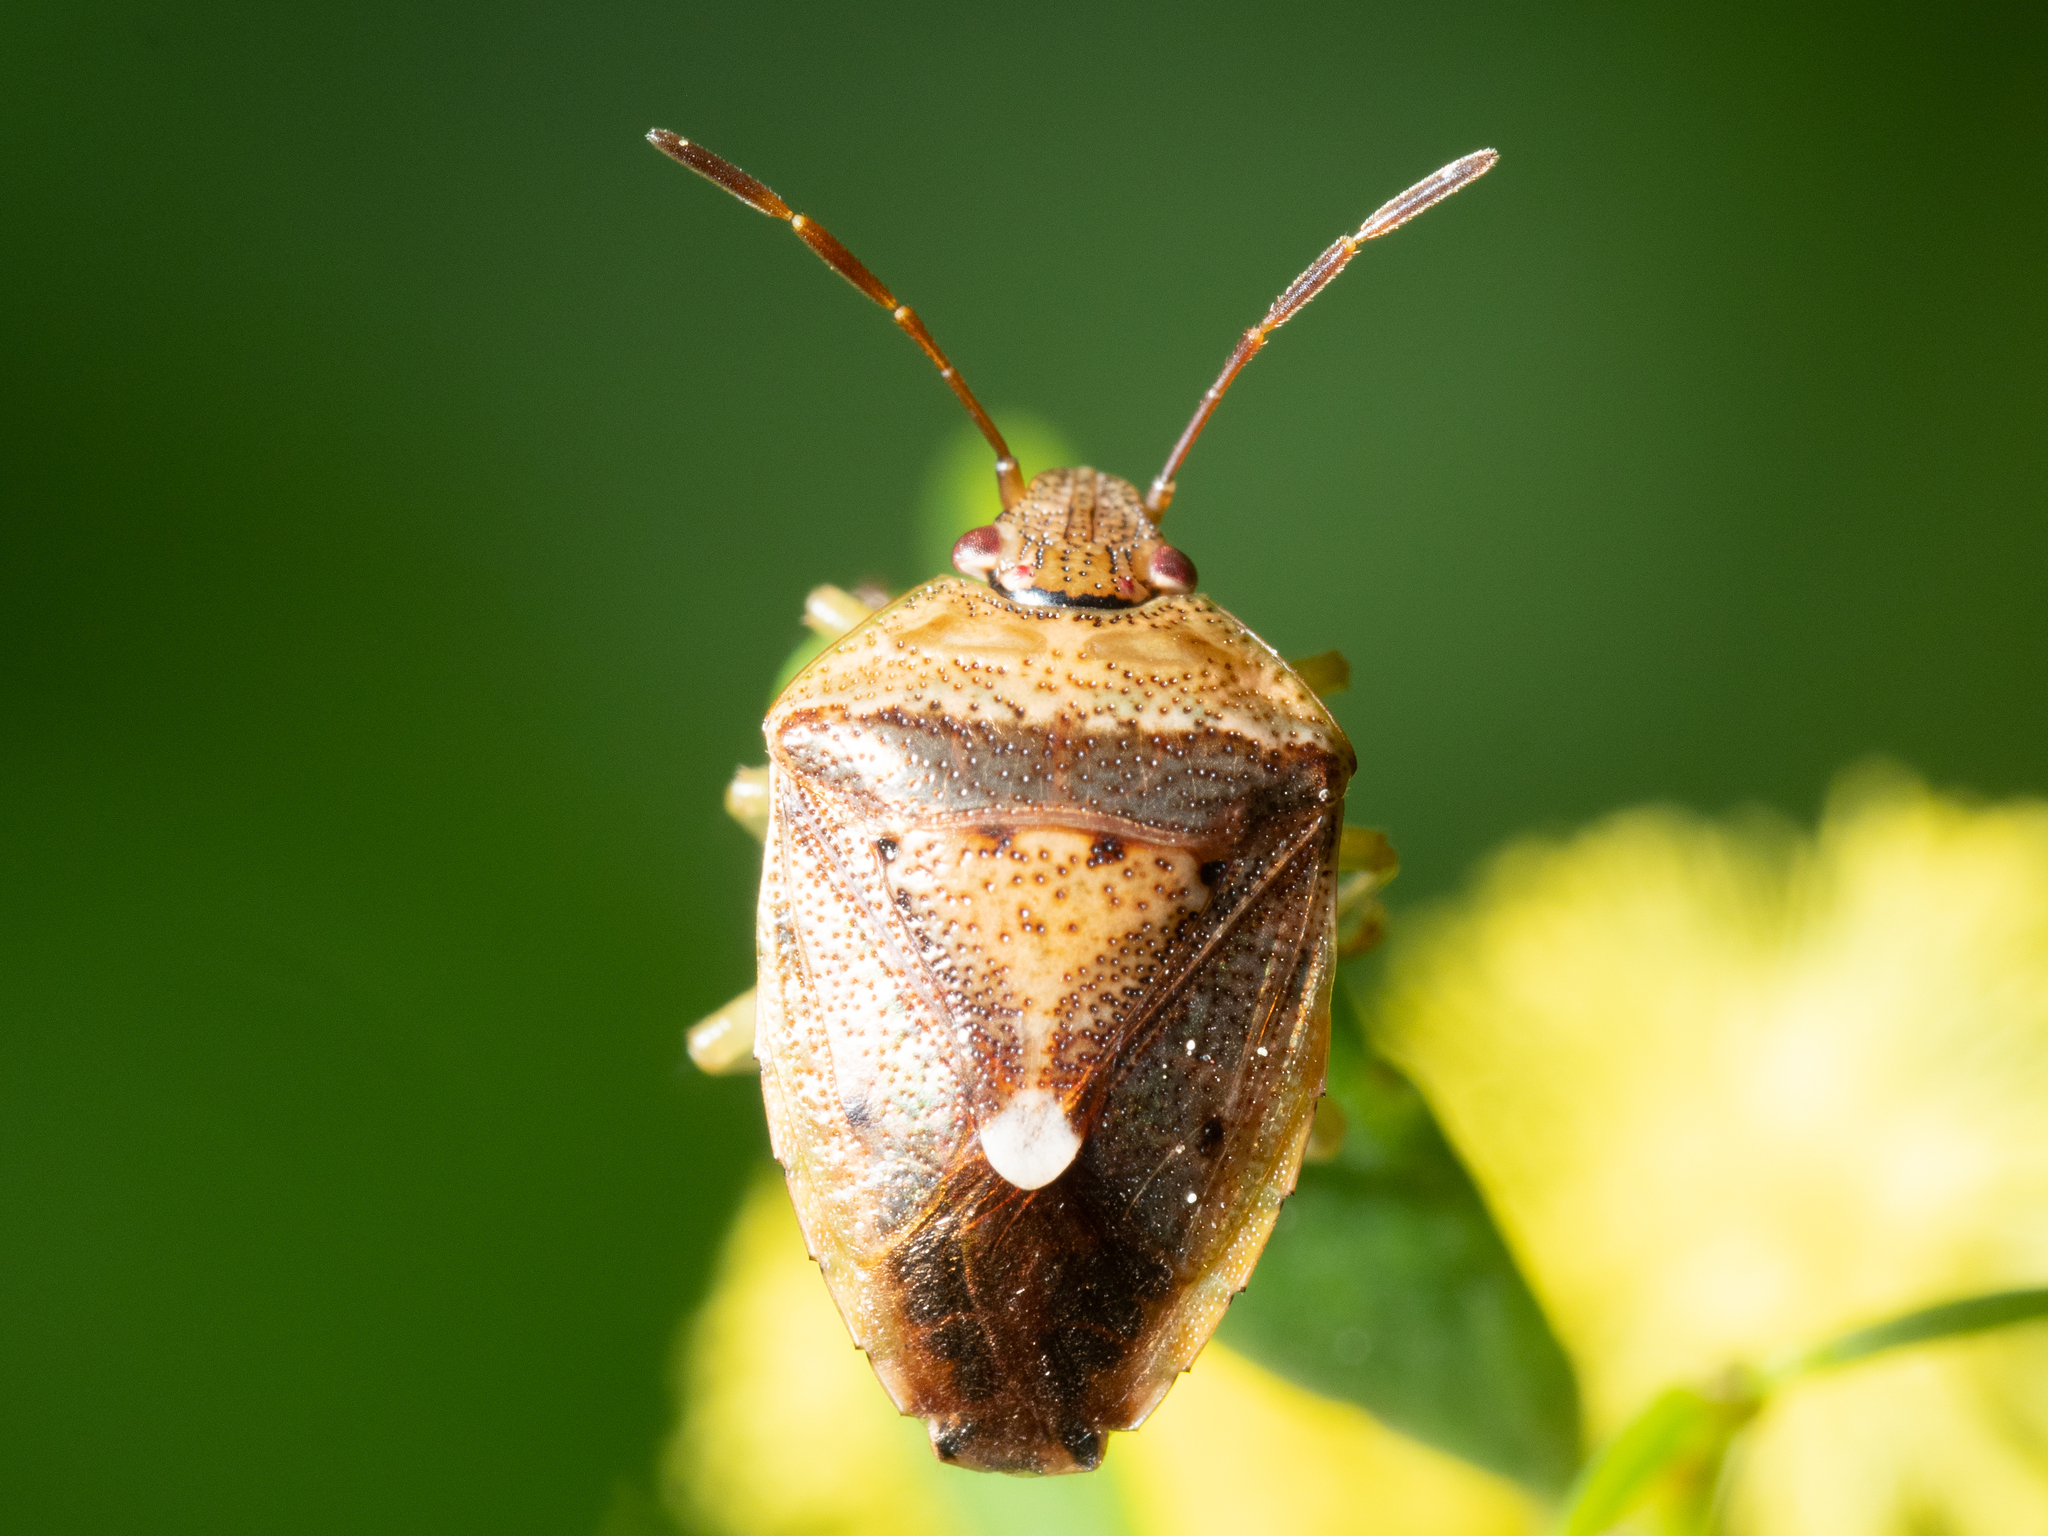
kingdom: Animalia
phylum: Arthropoda
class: Insecta
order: Hemiptera
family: Pentatomidae
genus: Ocirrhoe
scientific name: Ocirrhoe
